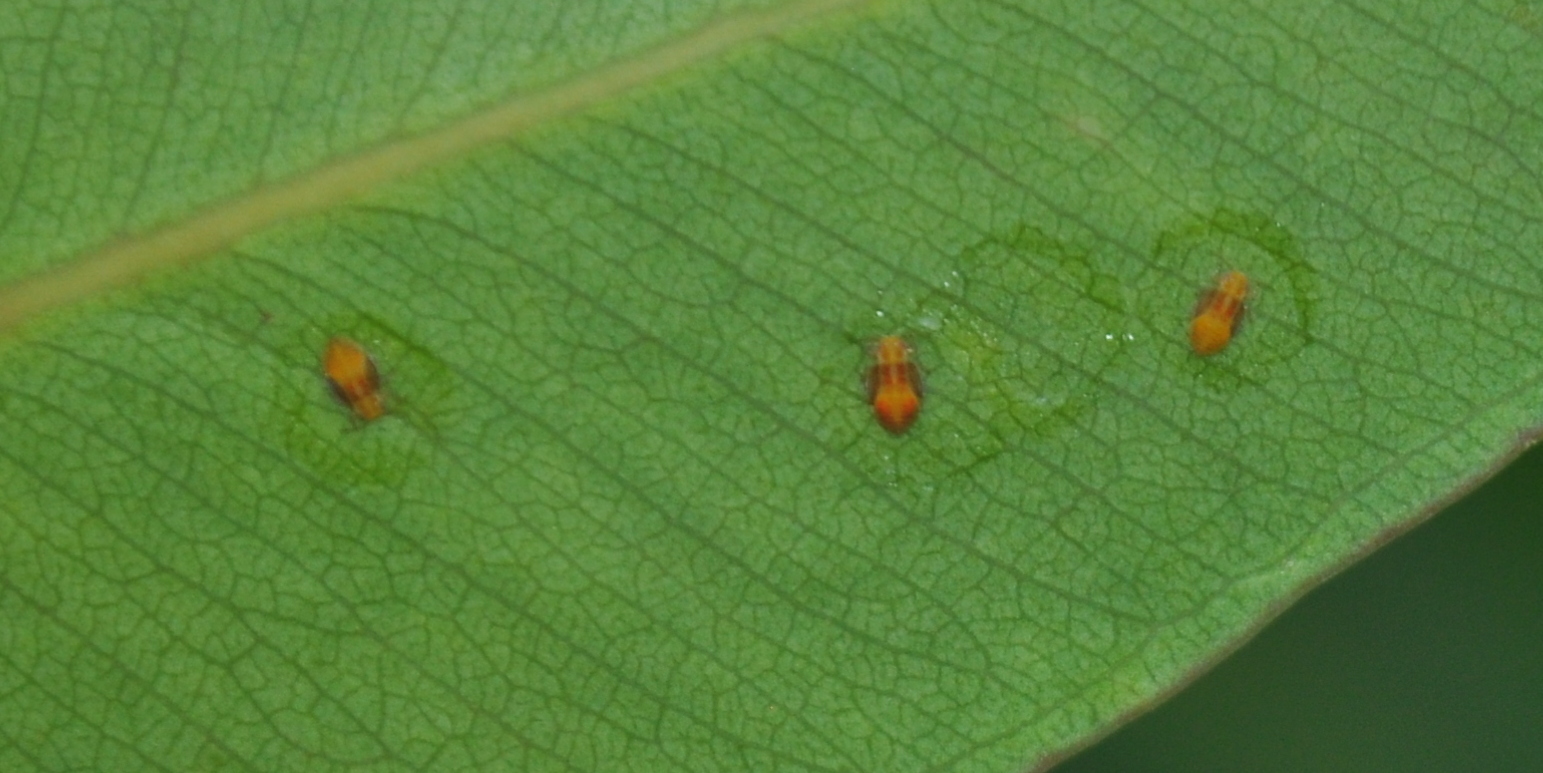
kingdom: Animalia
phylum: Arthropoda
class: Insecta
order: Hemiptera
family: Aphalaridae
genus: Glycaspis
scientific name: Glycaspis brimblecombei
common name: Red gum lerp psyllid
